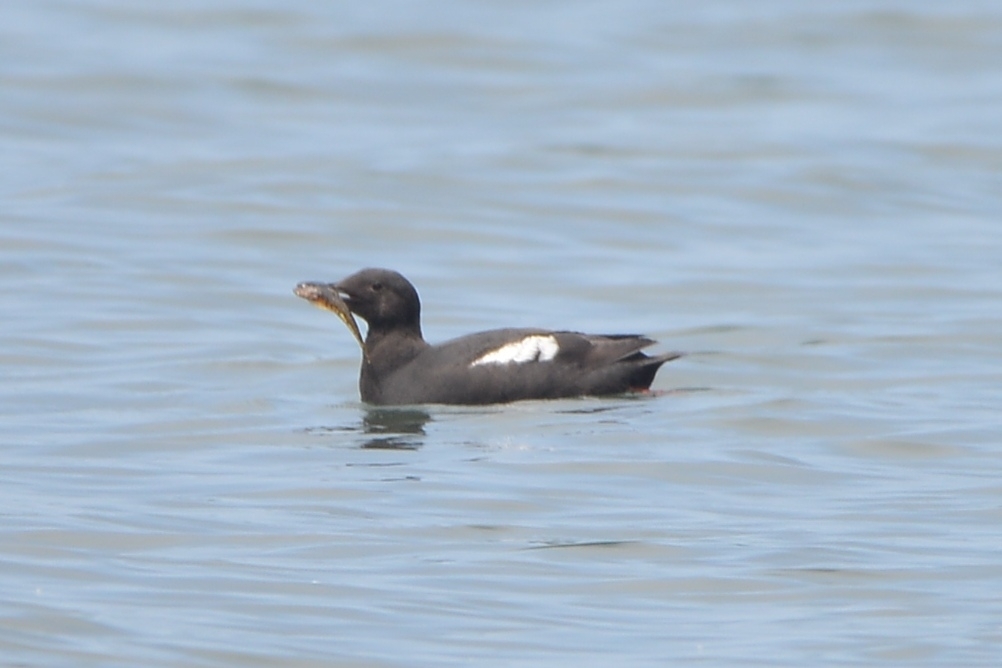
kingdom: Animalia
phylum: Chordata
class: Aves
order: Charadriiformes
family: Alcidae
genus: Cepphus
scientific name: Cepphus columba
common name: Pigeon guillemot
